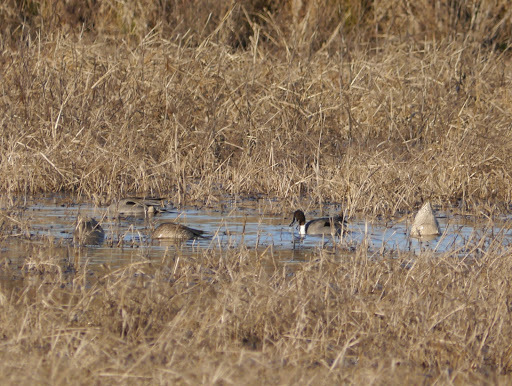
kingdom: Animalia
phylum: Chordata
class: Aves
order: Anseriformes
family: Anatidae
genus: Anas
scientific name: Anas acuta
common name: Northern pintail
